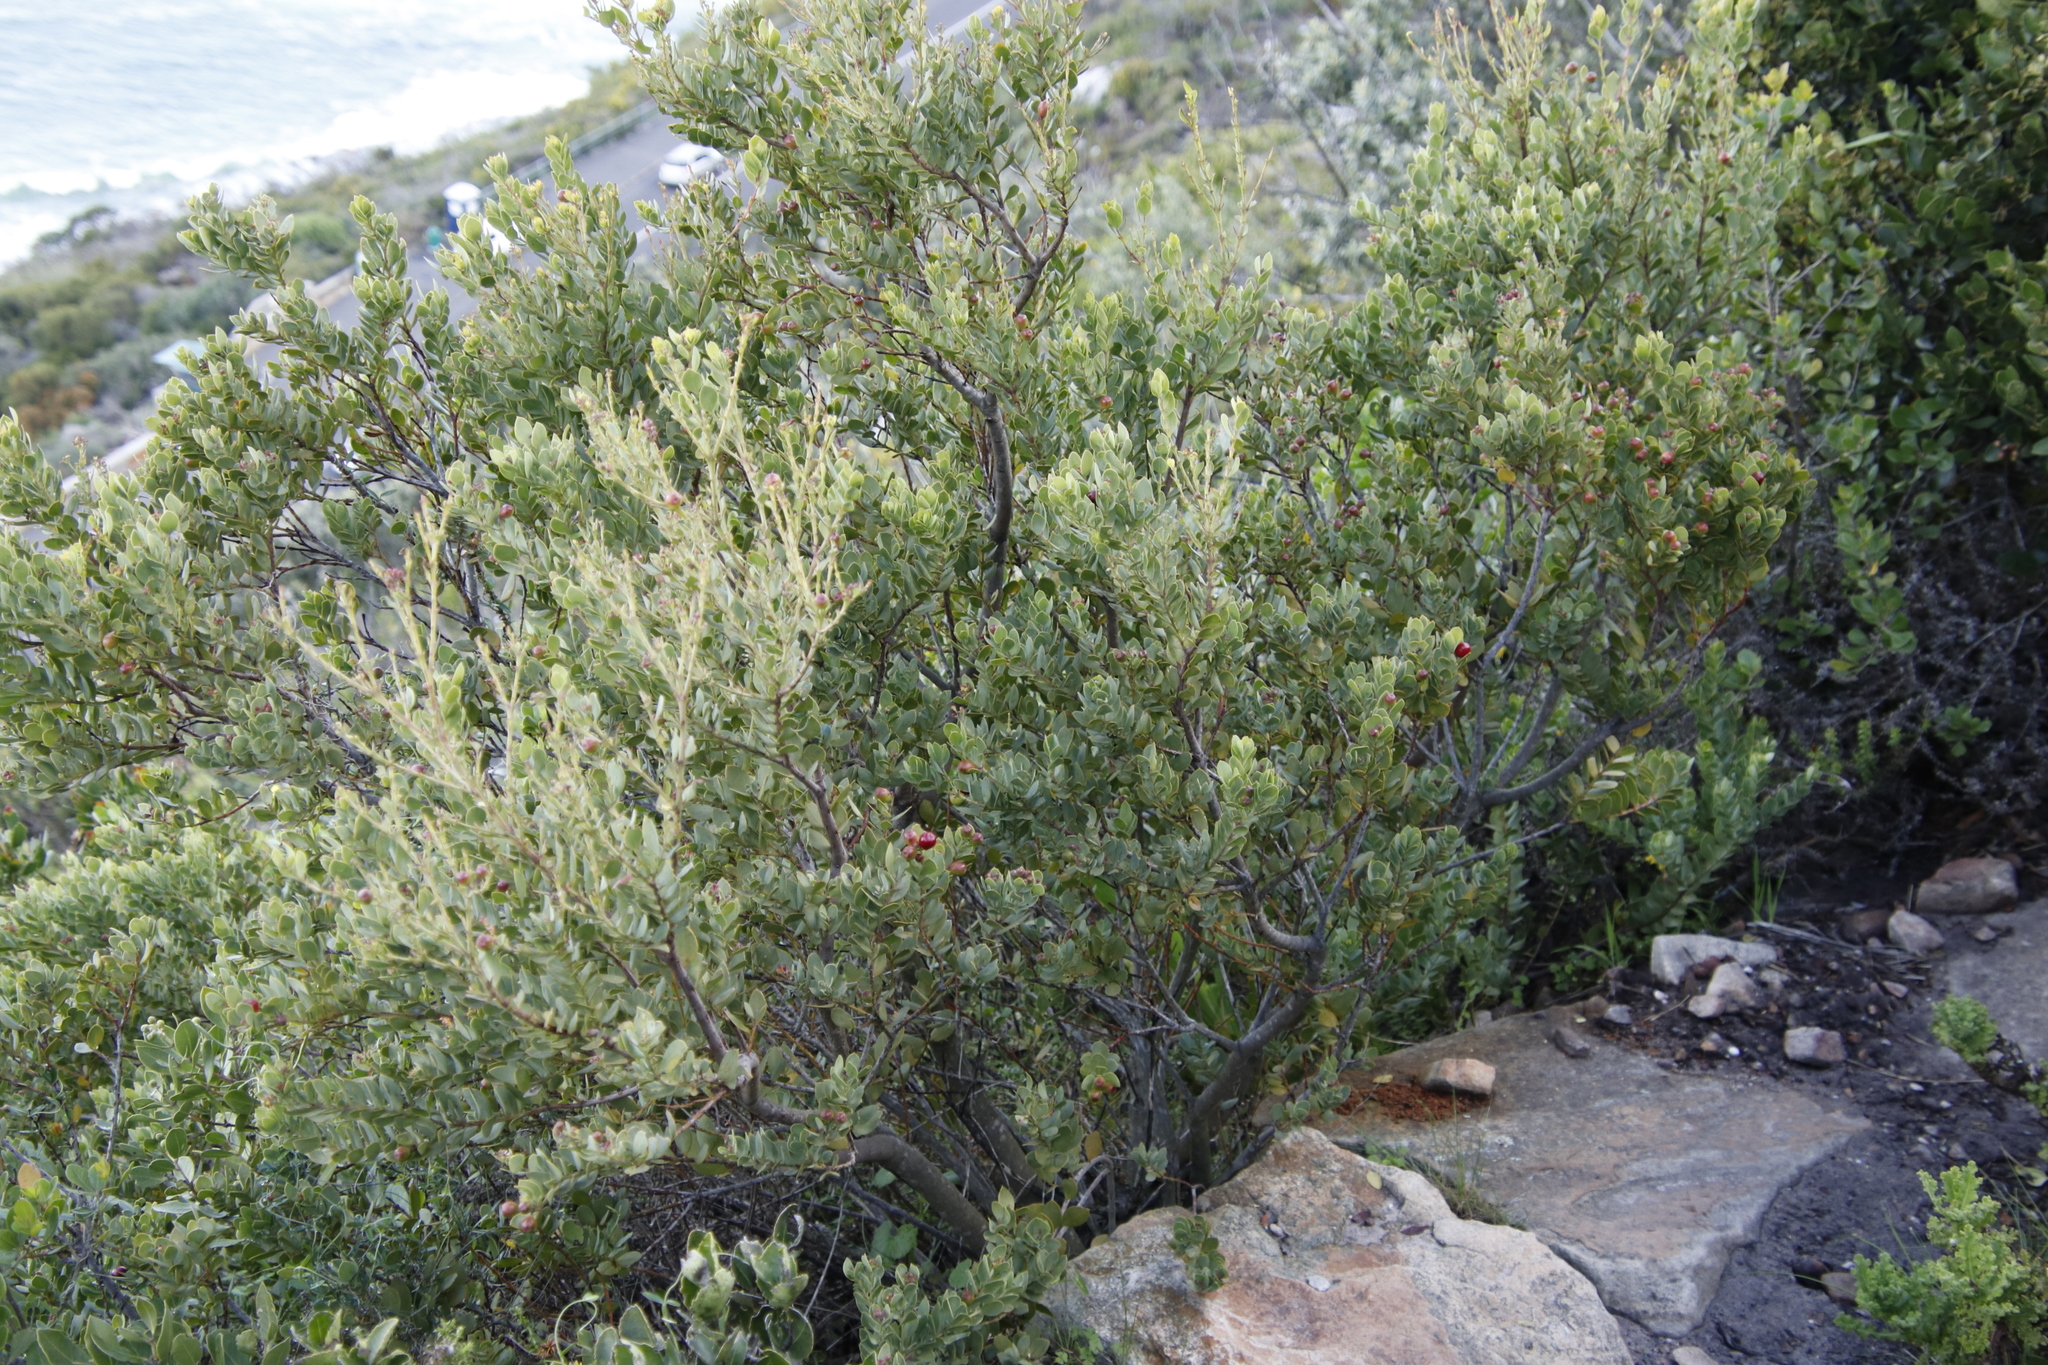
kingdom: Plantae
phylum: Tracheophyta
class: Magnoliopsida
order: Santalales
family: Santalaceae
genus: Osyris
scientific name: Osyris compressa
